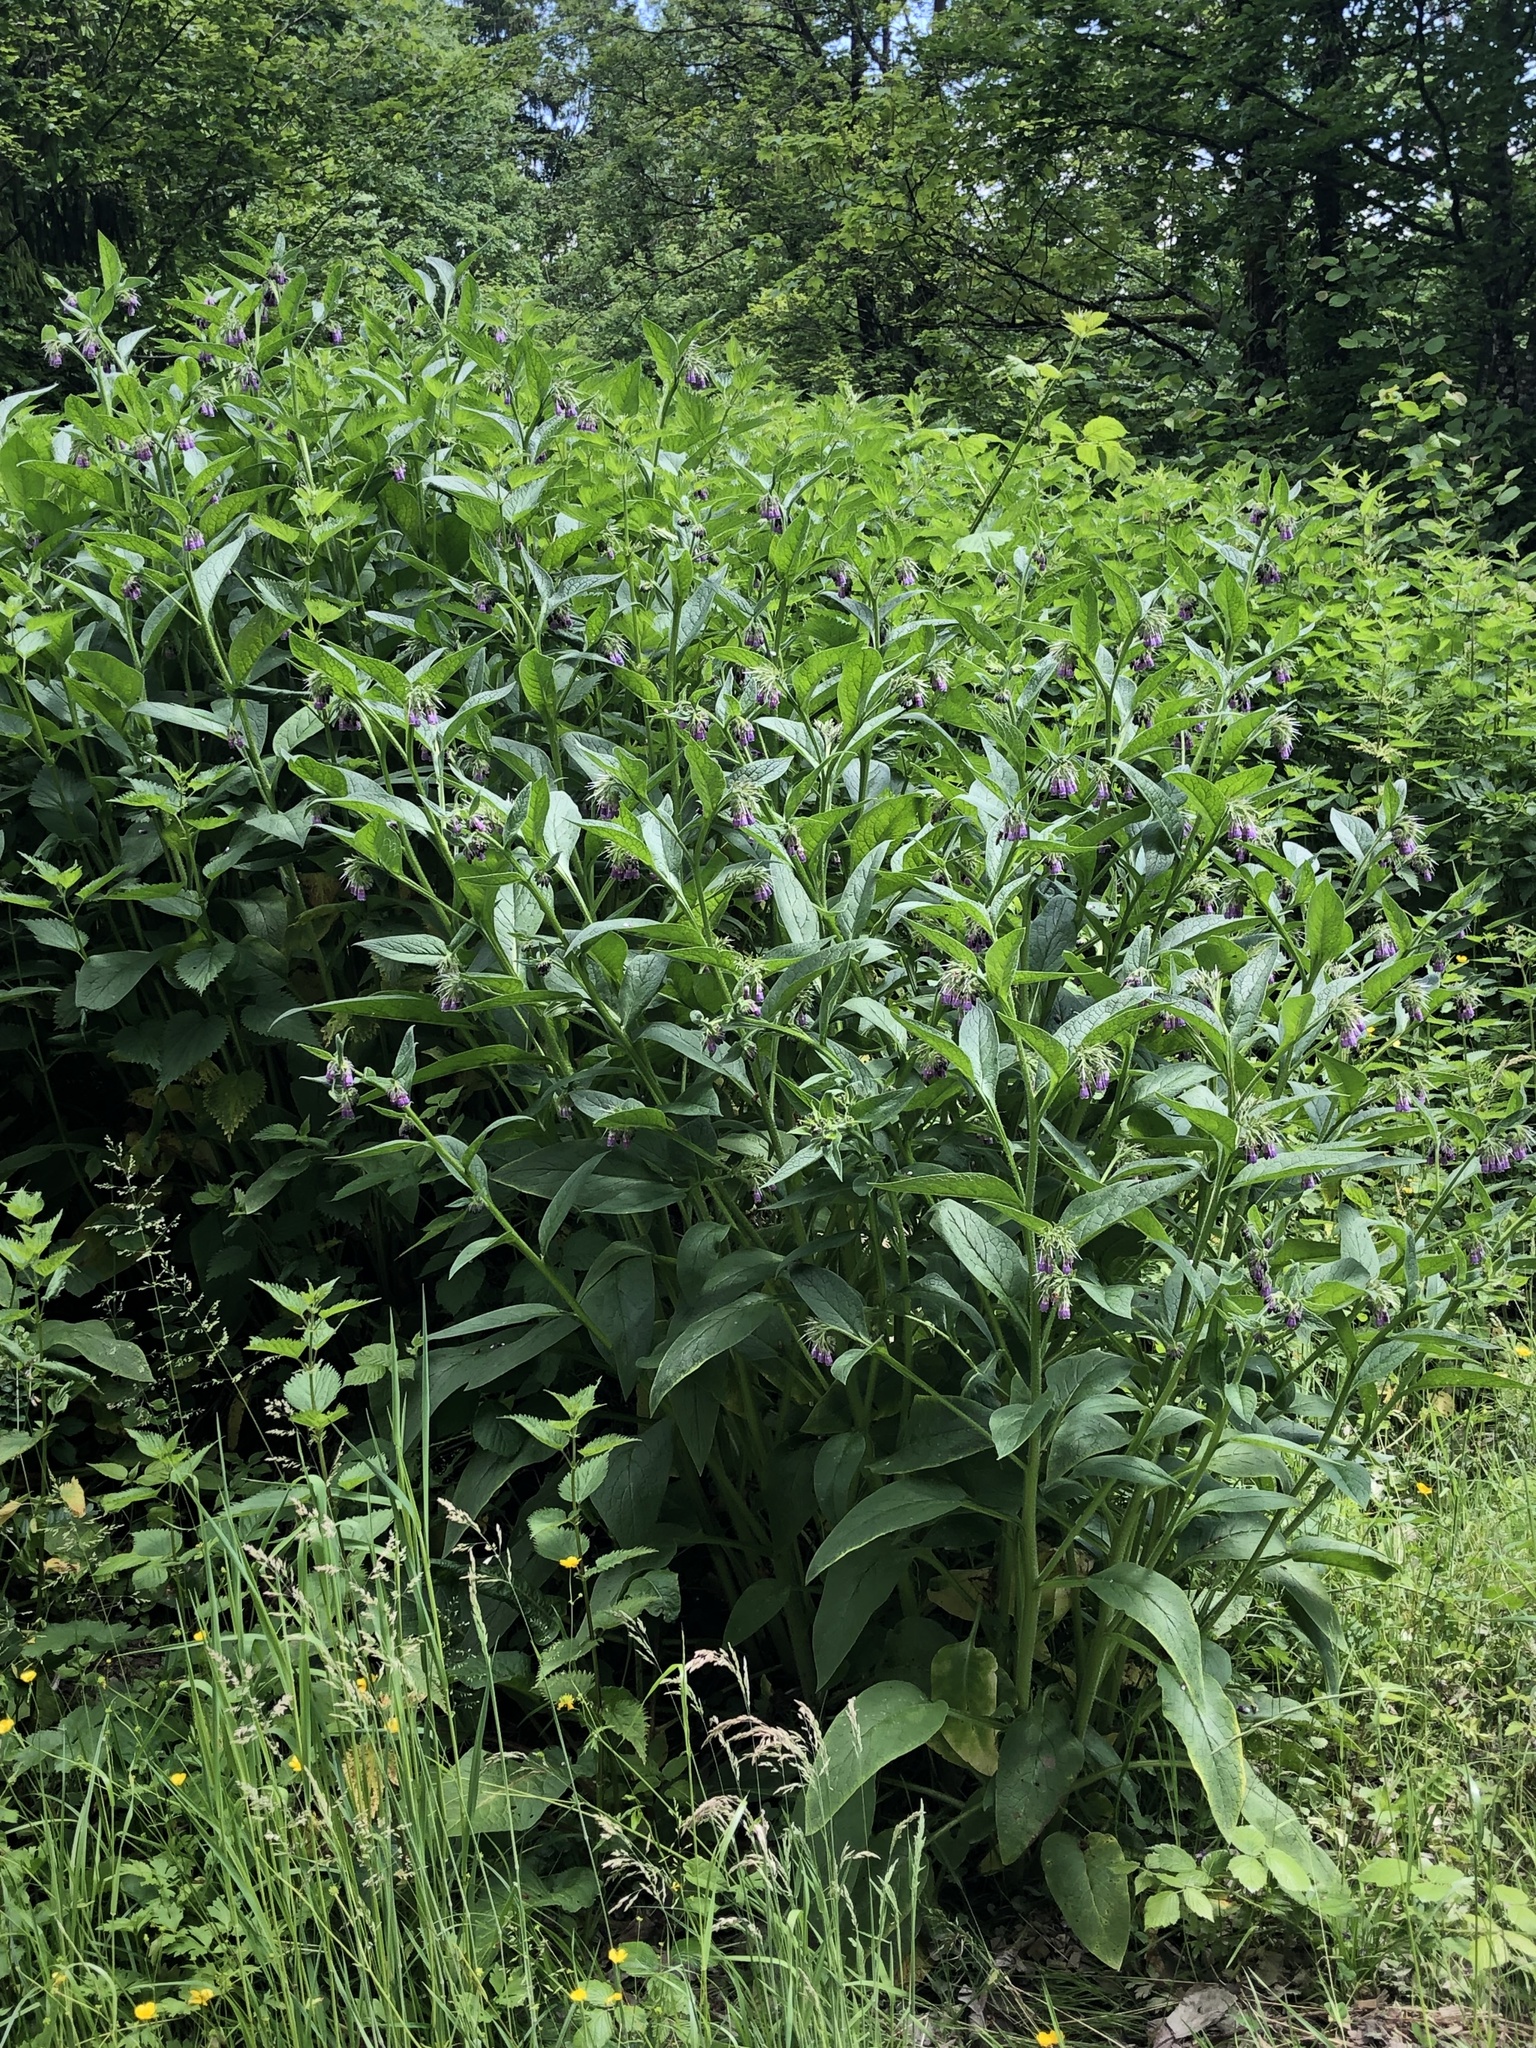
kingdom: Plantae
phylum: Tracheophyta
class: Magnoliopsida
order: Boraginales
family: Boraginaceae
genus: Symphytum
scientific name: Symphytum officinale
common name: Common comfrey
